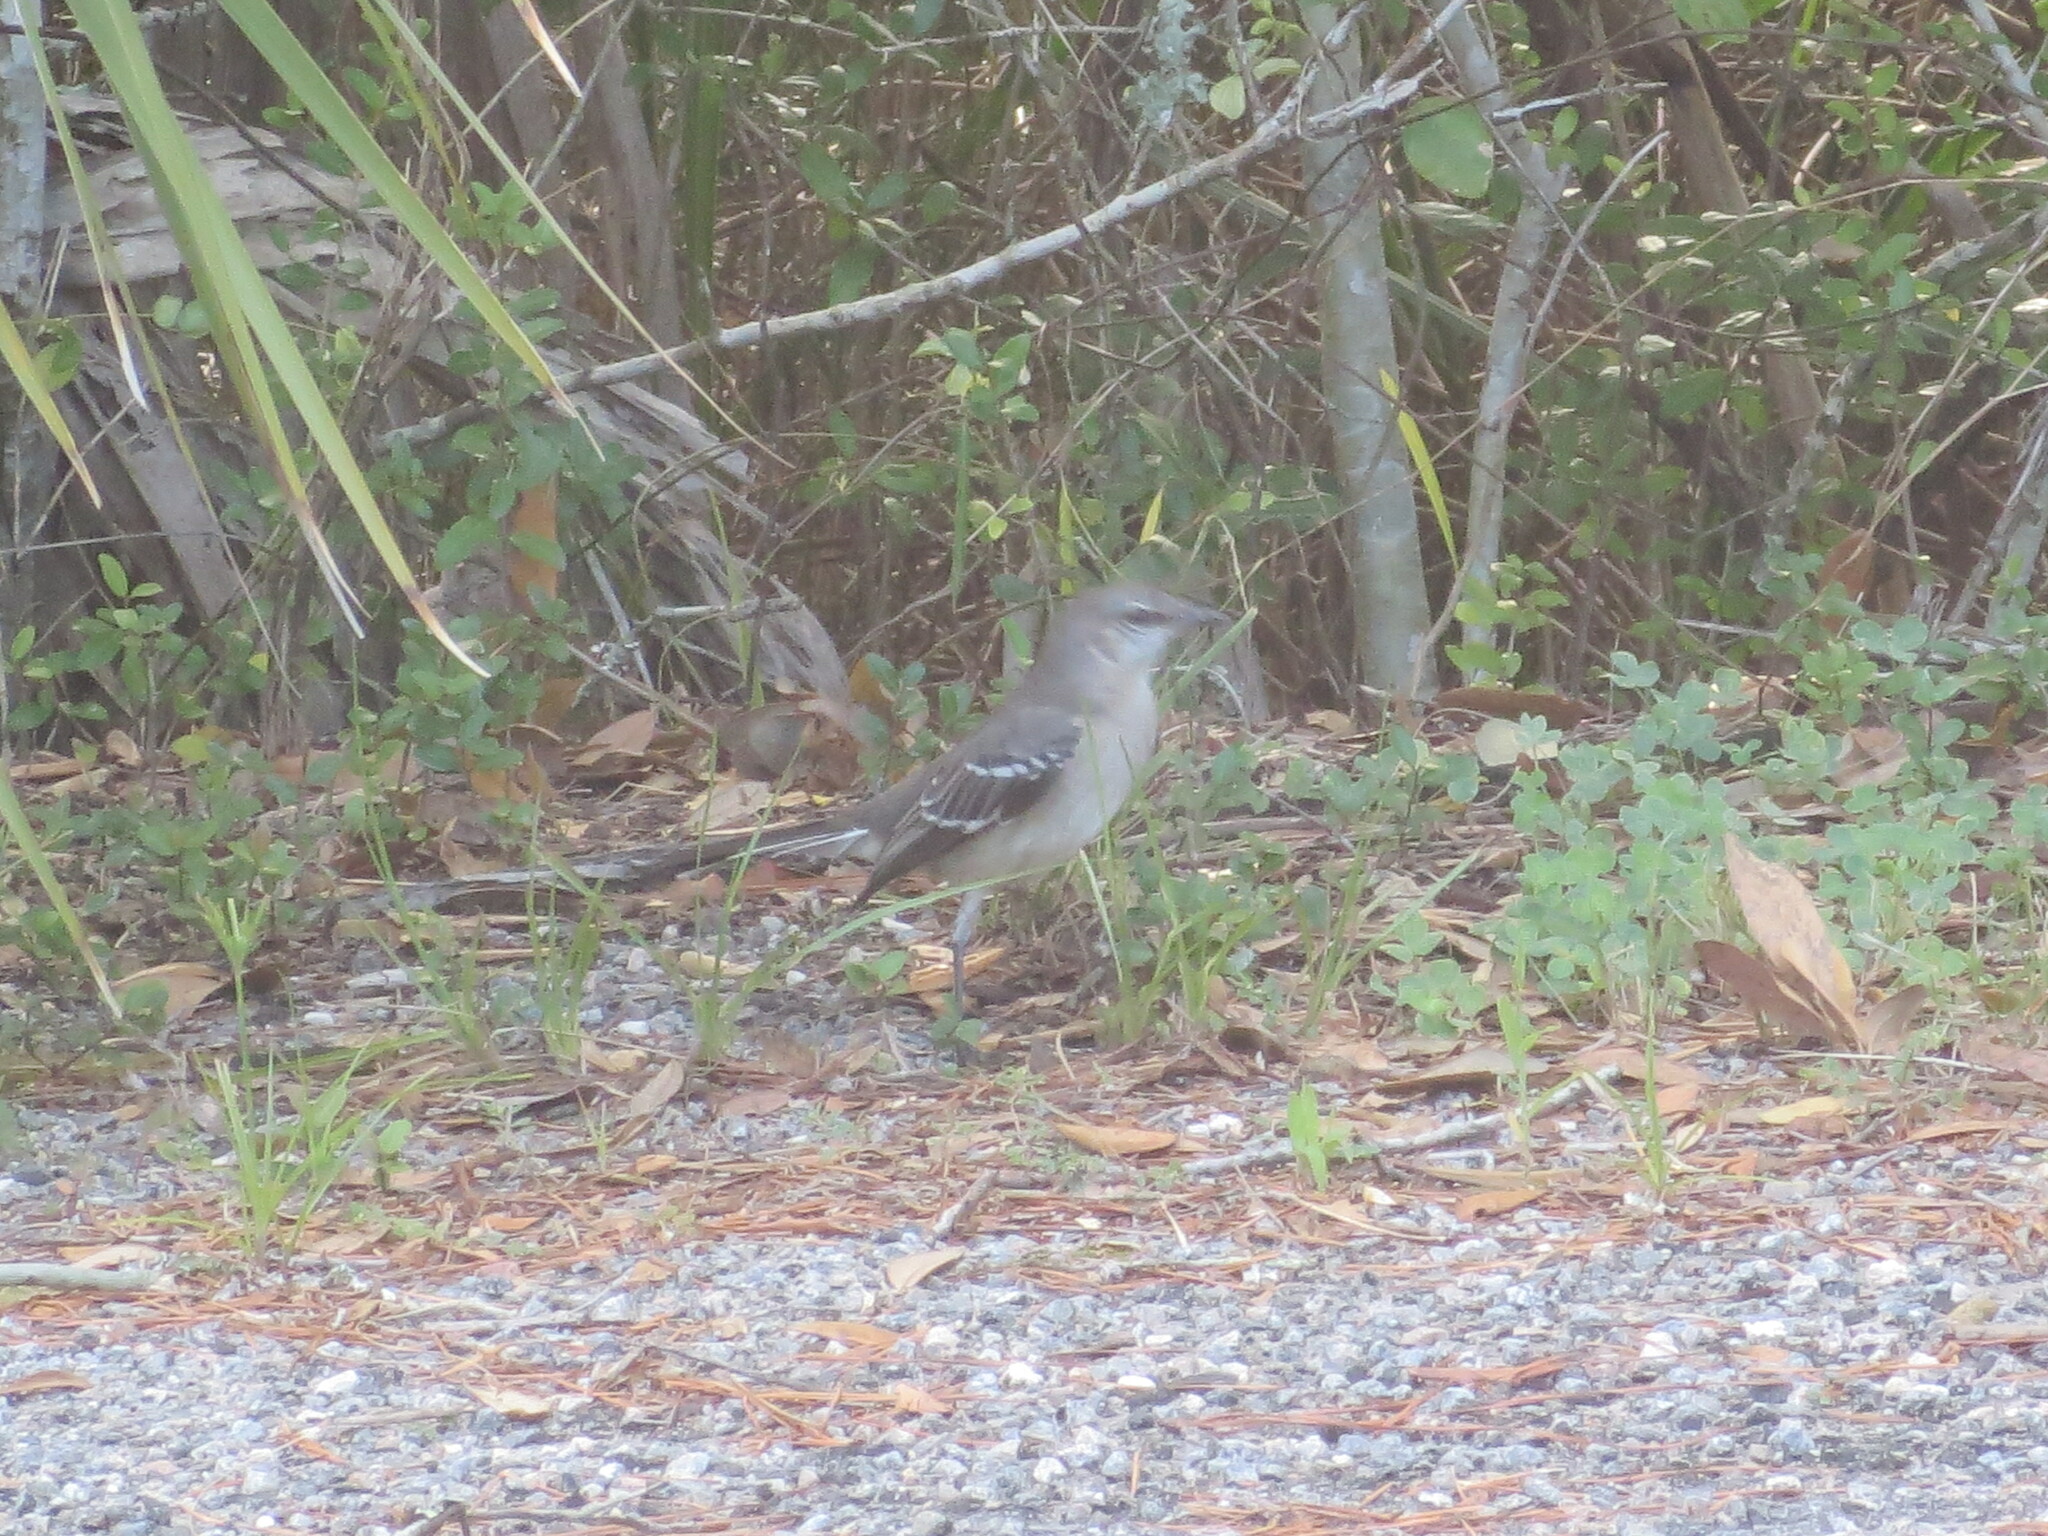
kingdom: Animalia
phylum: Chordata
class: Aves
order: Passeriformes
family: Mimidae
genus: Mimus
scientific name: Mimus polyglottos
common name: Northern mockingbird
